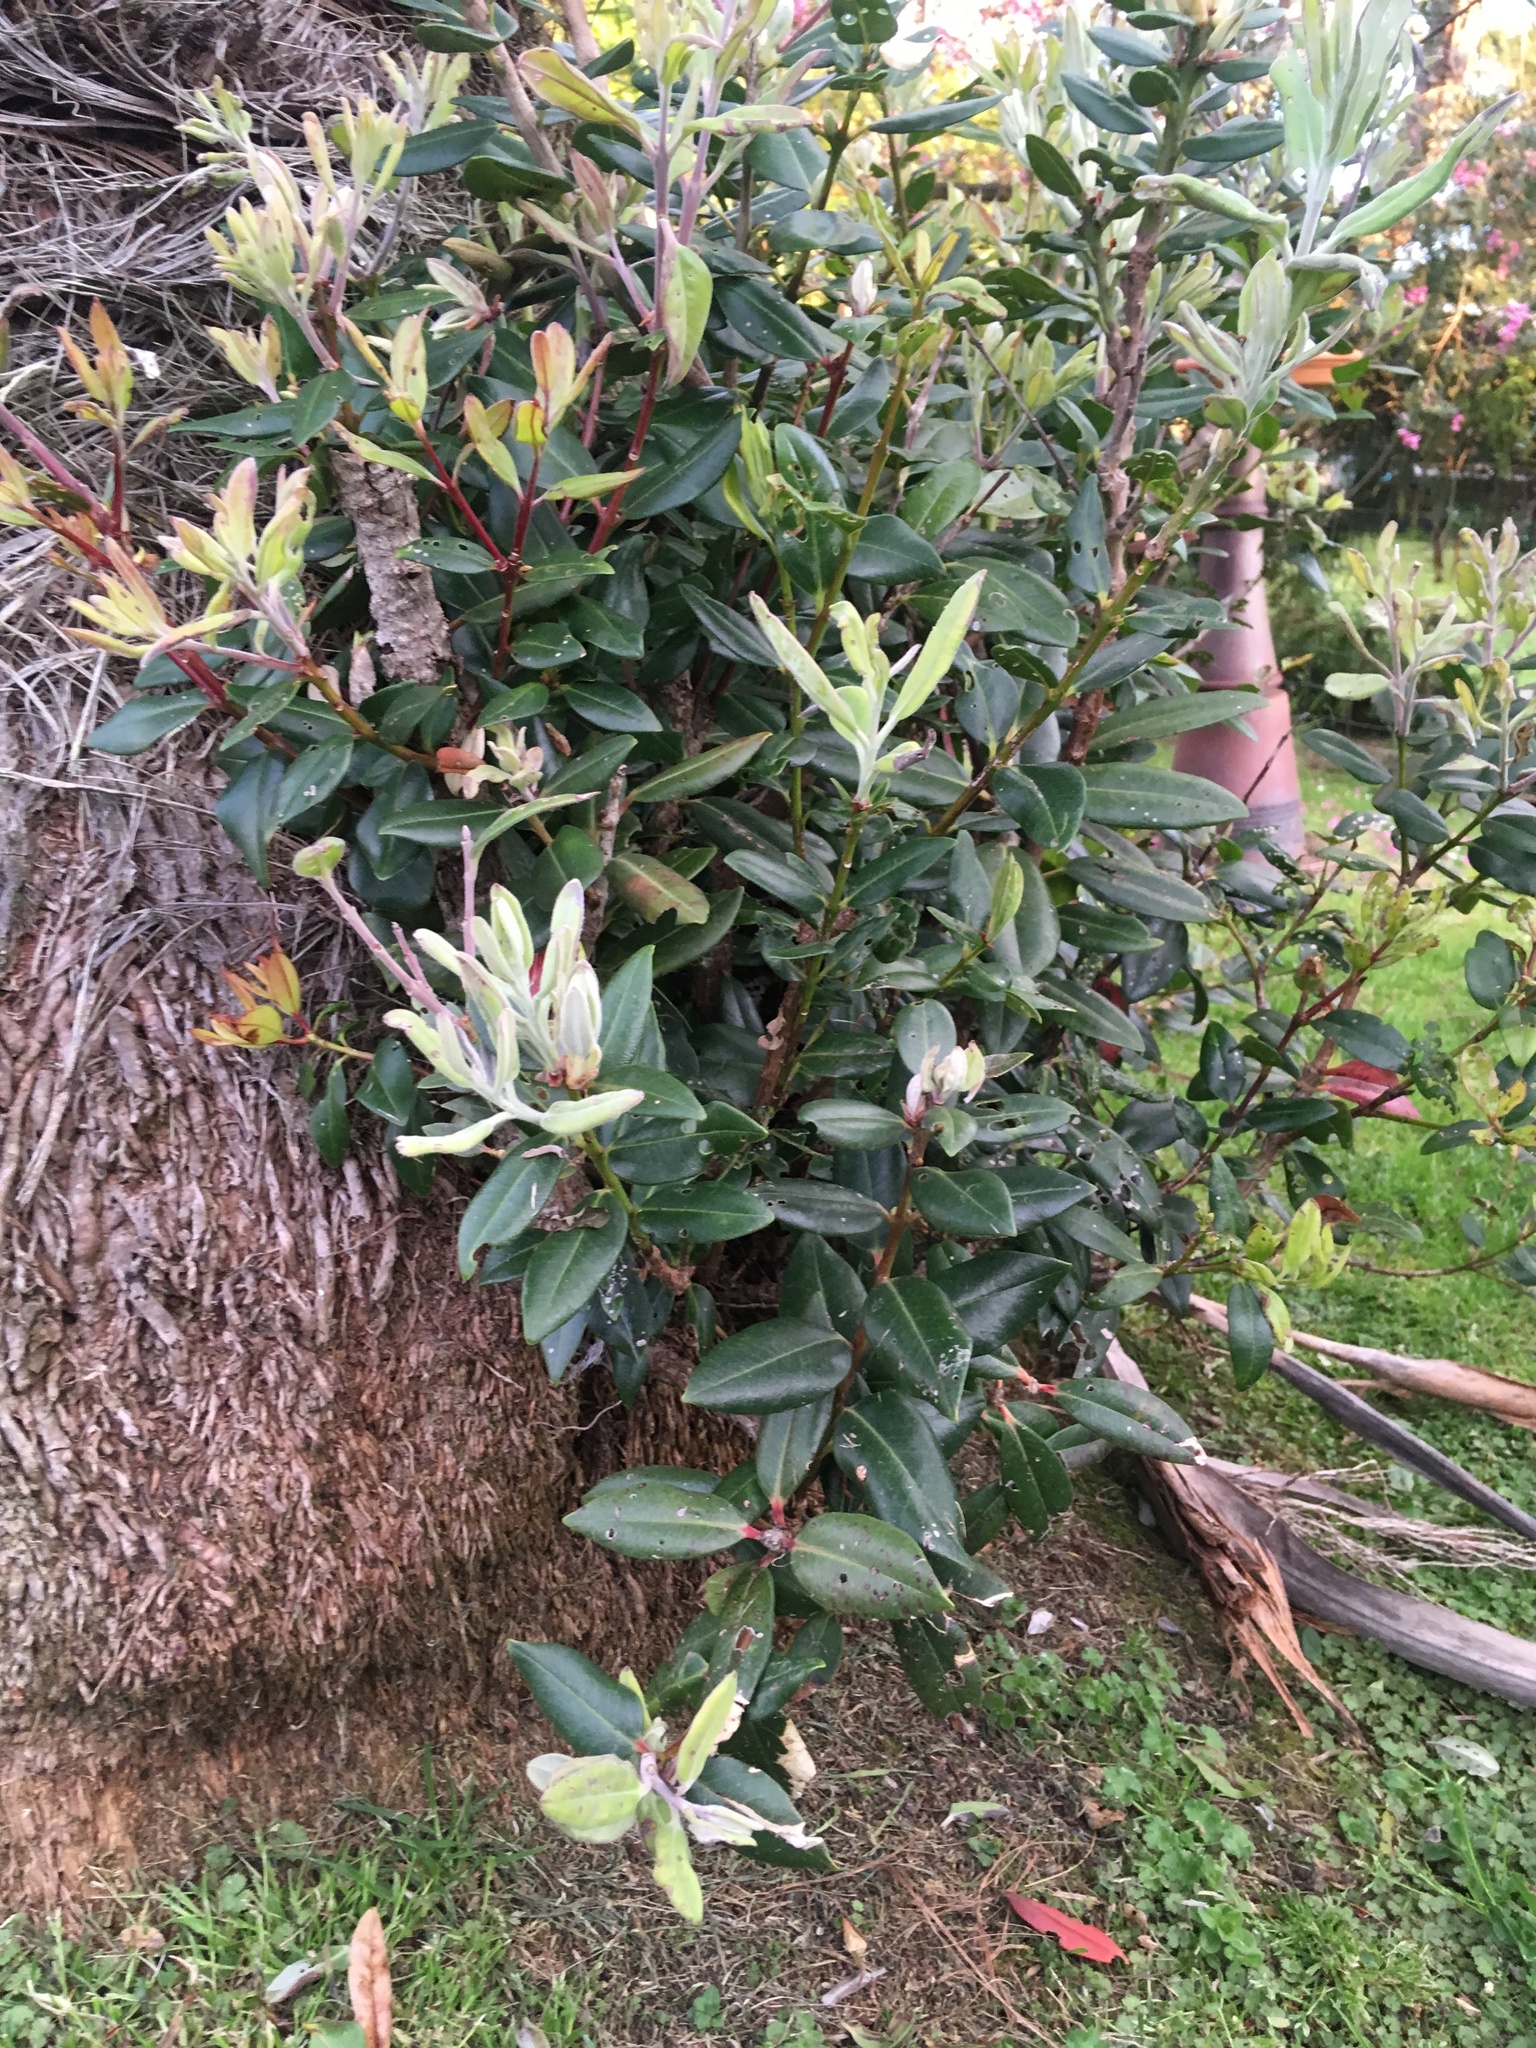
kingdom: Plantae
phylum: Tracheophyta
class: Magnoliopsida
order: Myrtales
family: Myrtaceae
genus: Metrosideros
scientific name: Metrosideros excelsa
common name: New zealand christmastree
